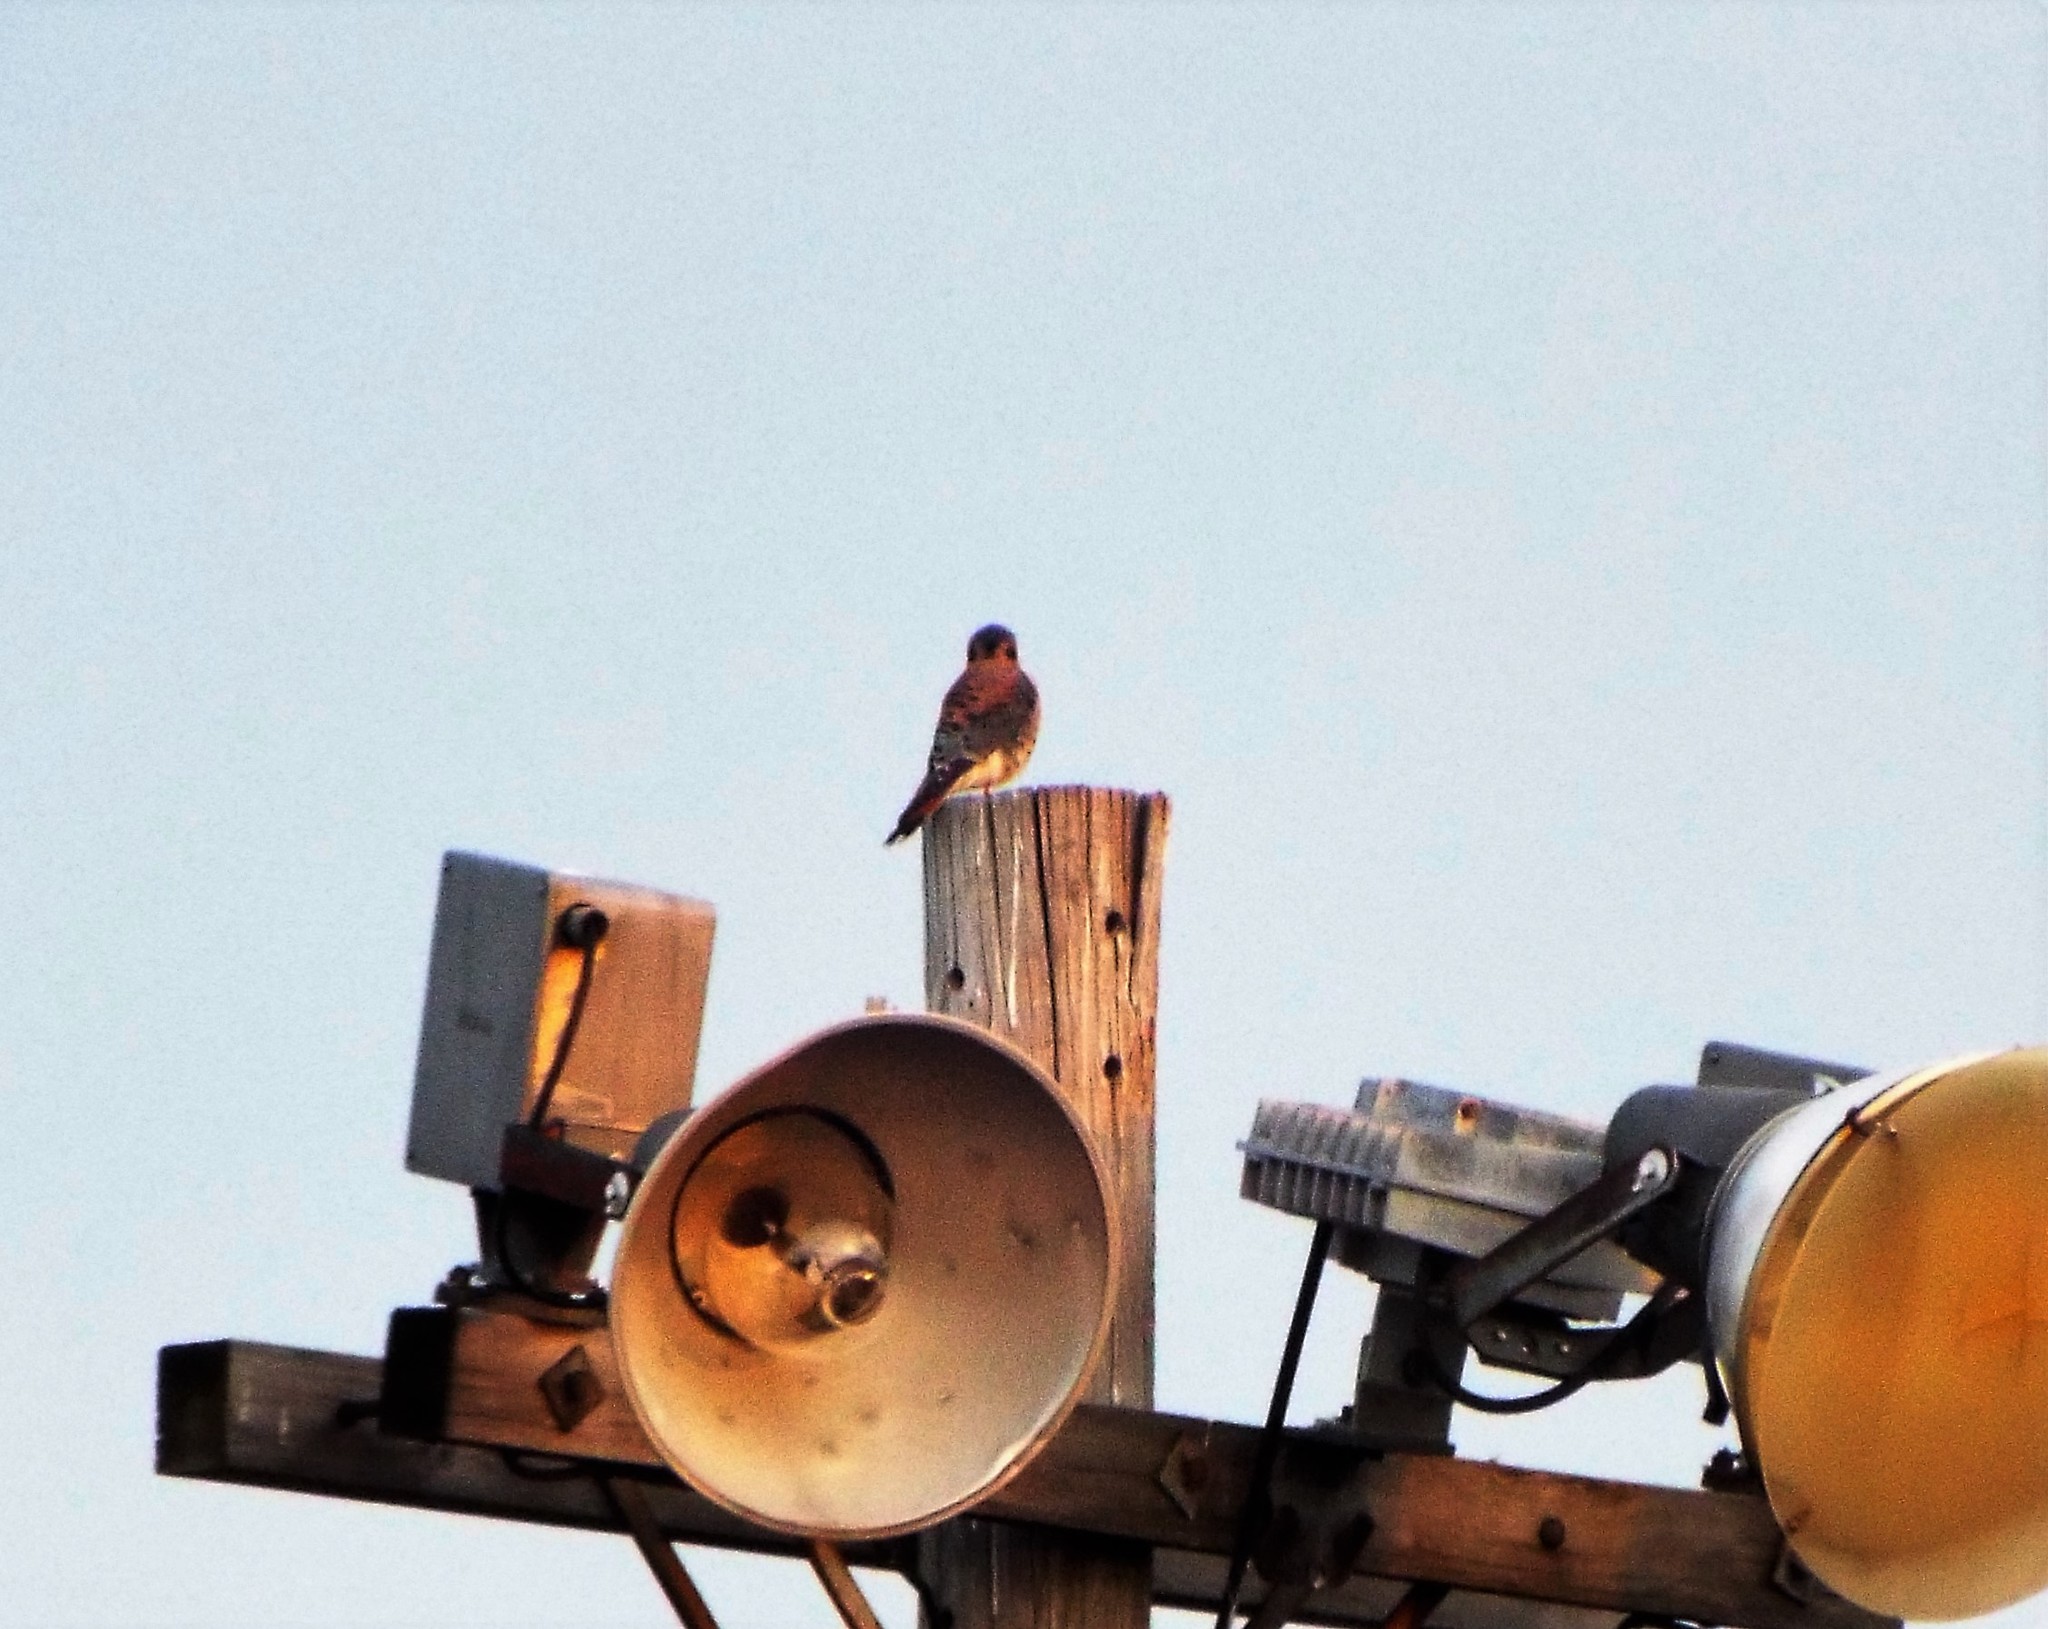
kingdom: Animalia
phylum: Chordata
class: Aves
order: Falconiformes
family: Falconidae
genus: Falco
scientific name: Falco sparverius
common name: American kestrel
